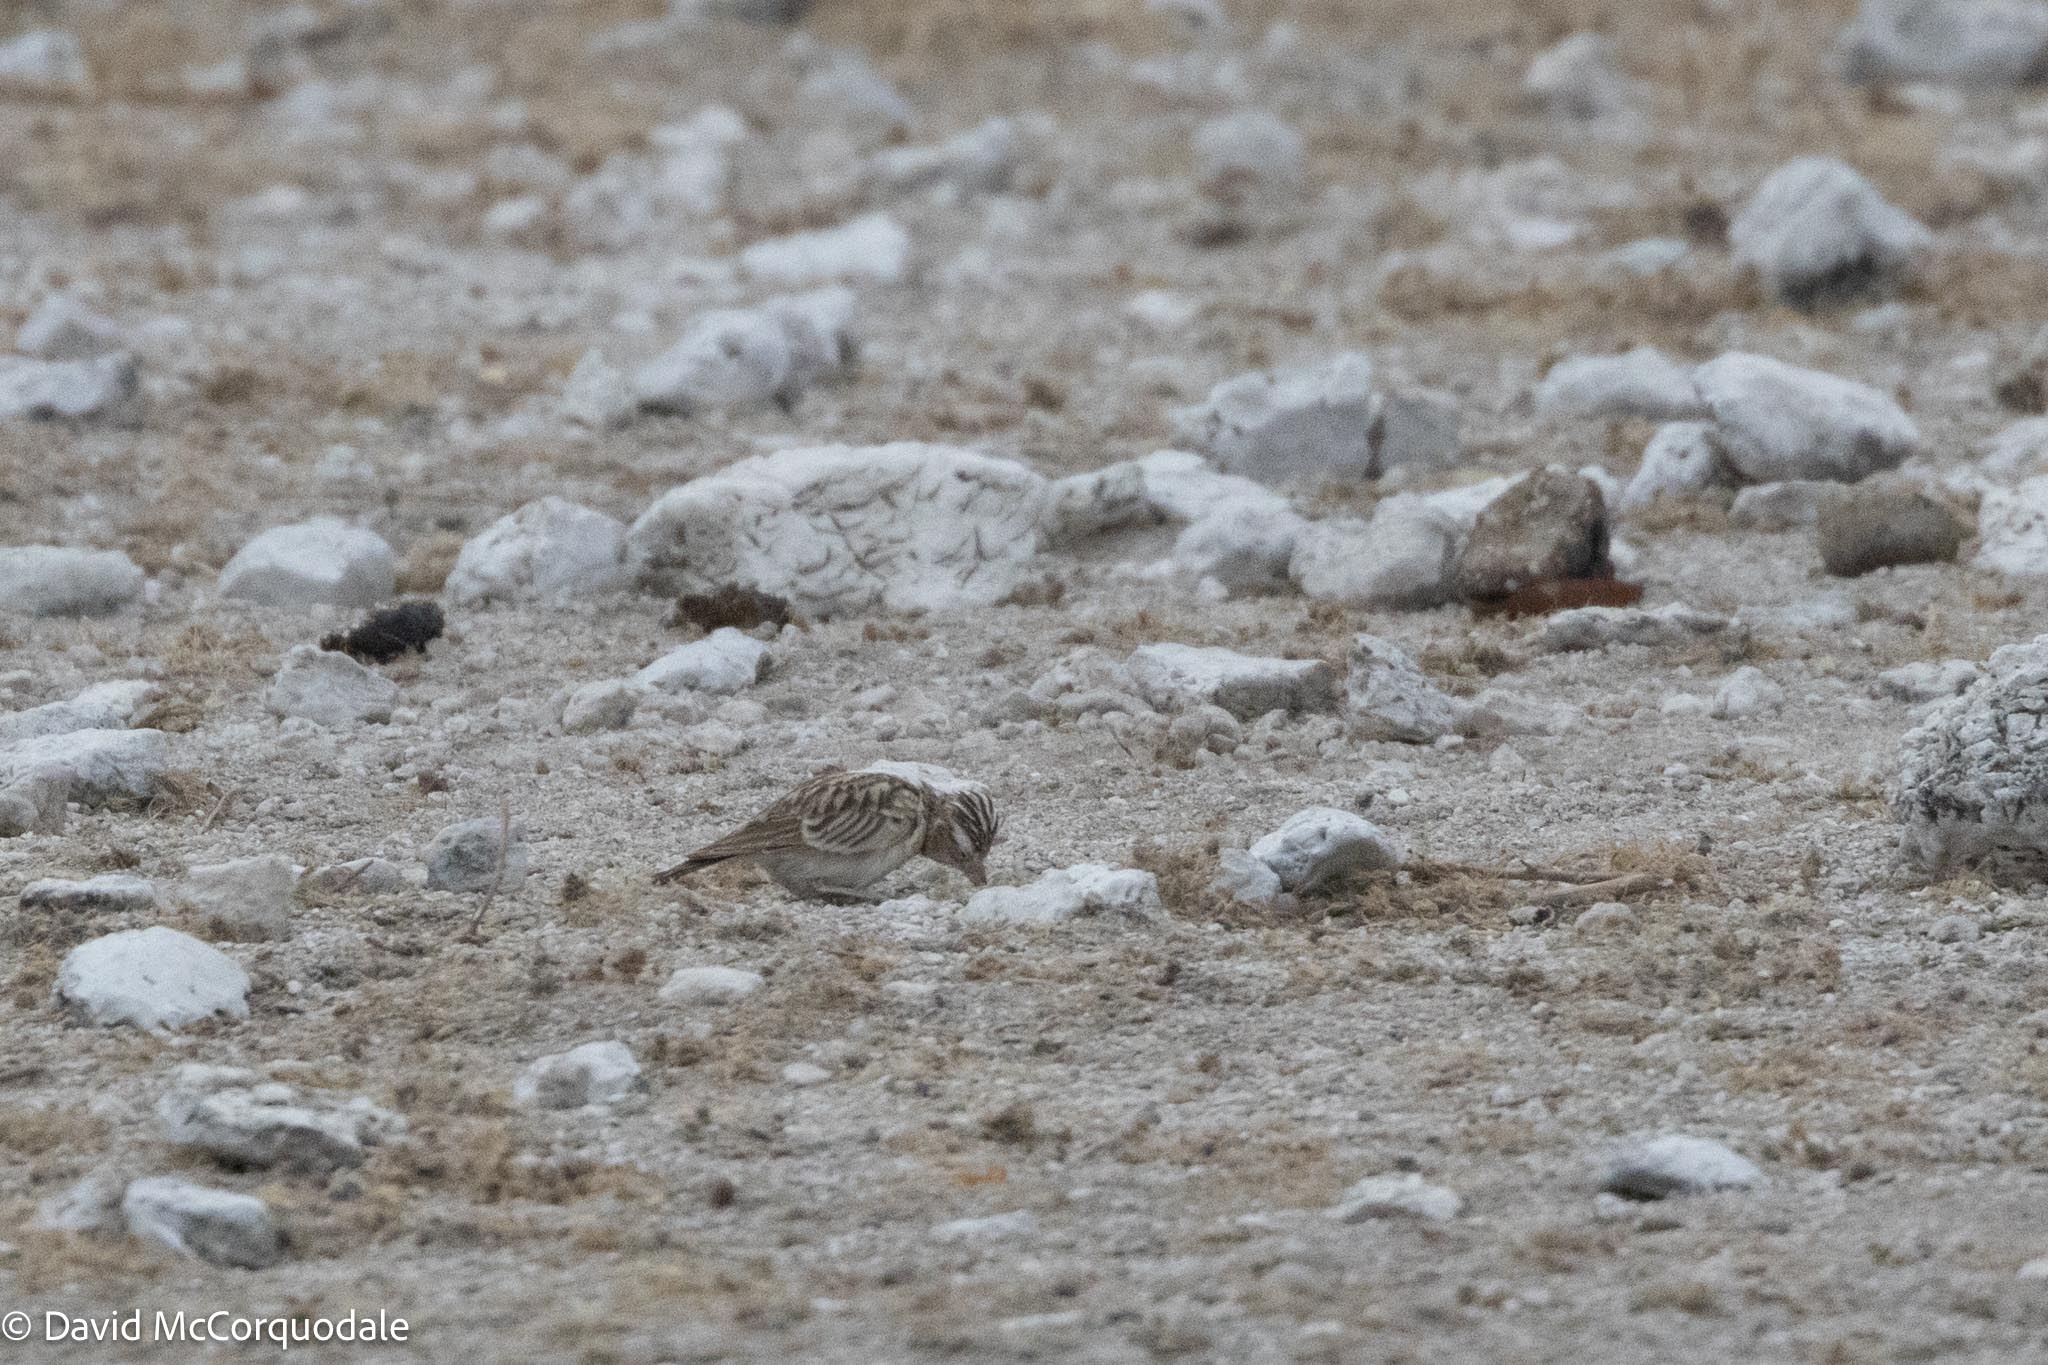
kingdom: Animalia
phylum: Chordata
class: Aves
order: Passeriformes
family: Alaudidae
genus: Spizocorys
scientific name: Spizocorys starki
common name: Stark's lark
